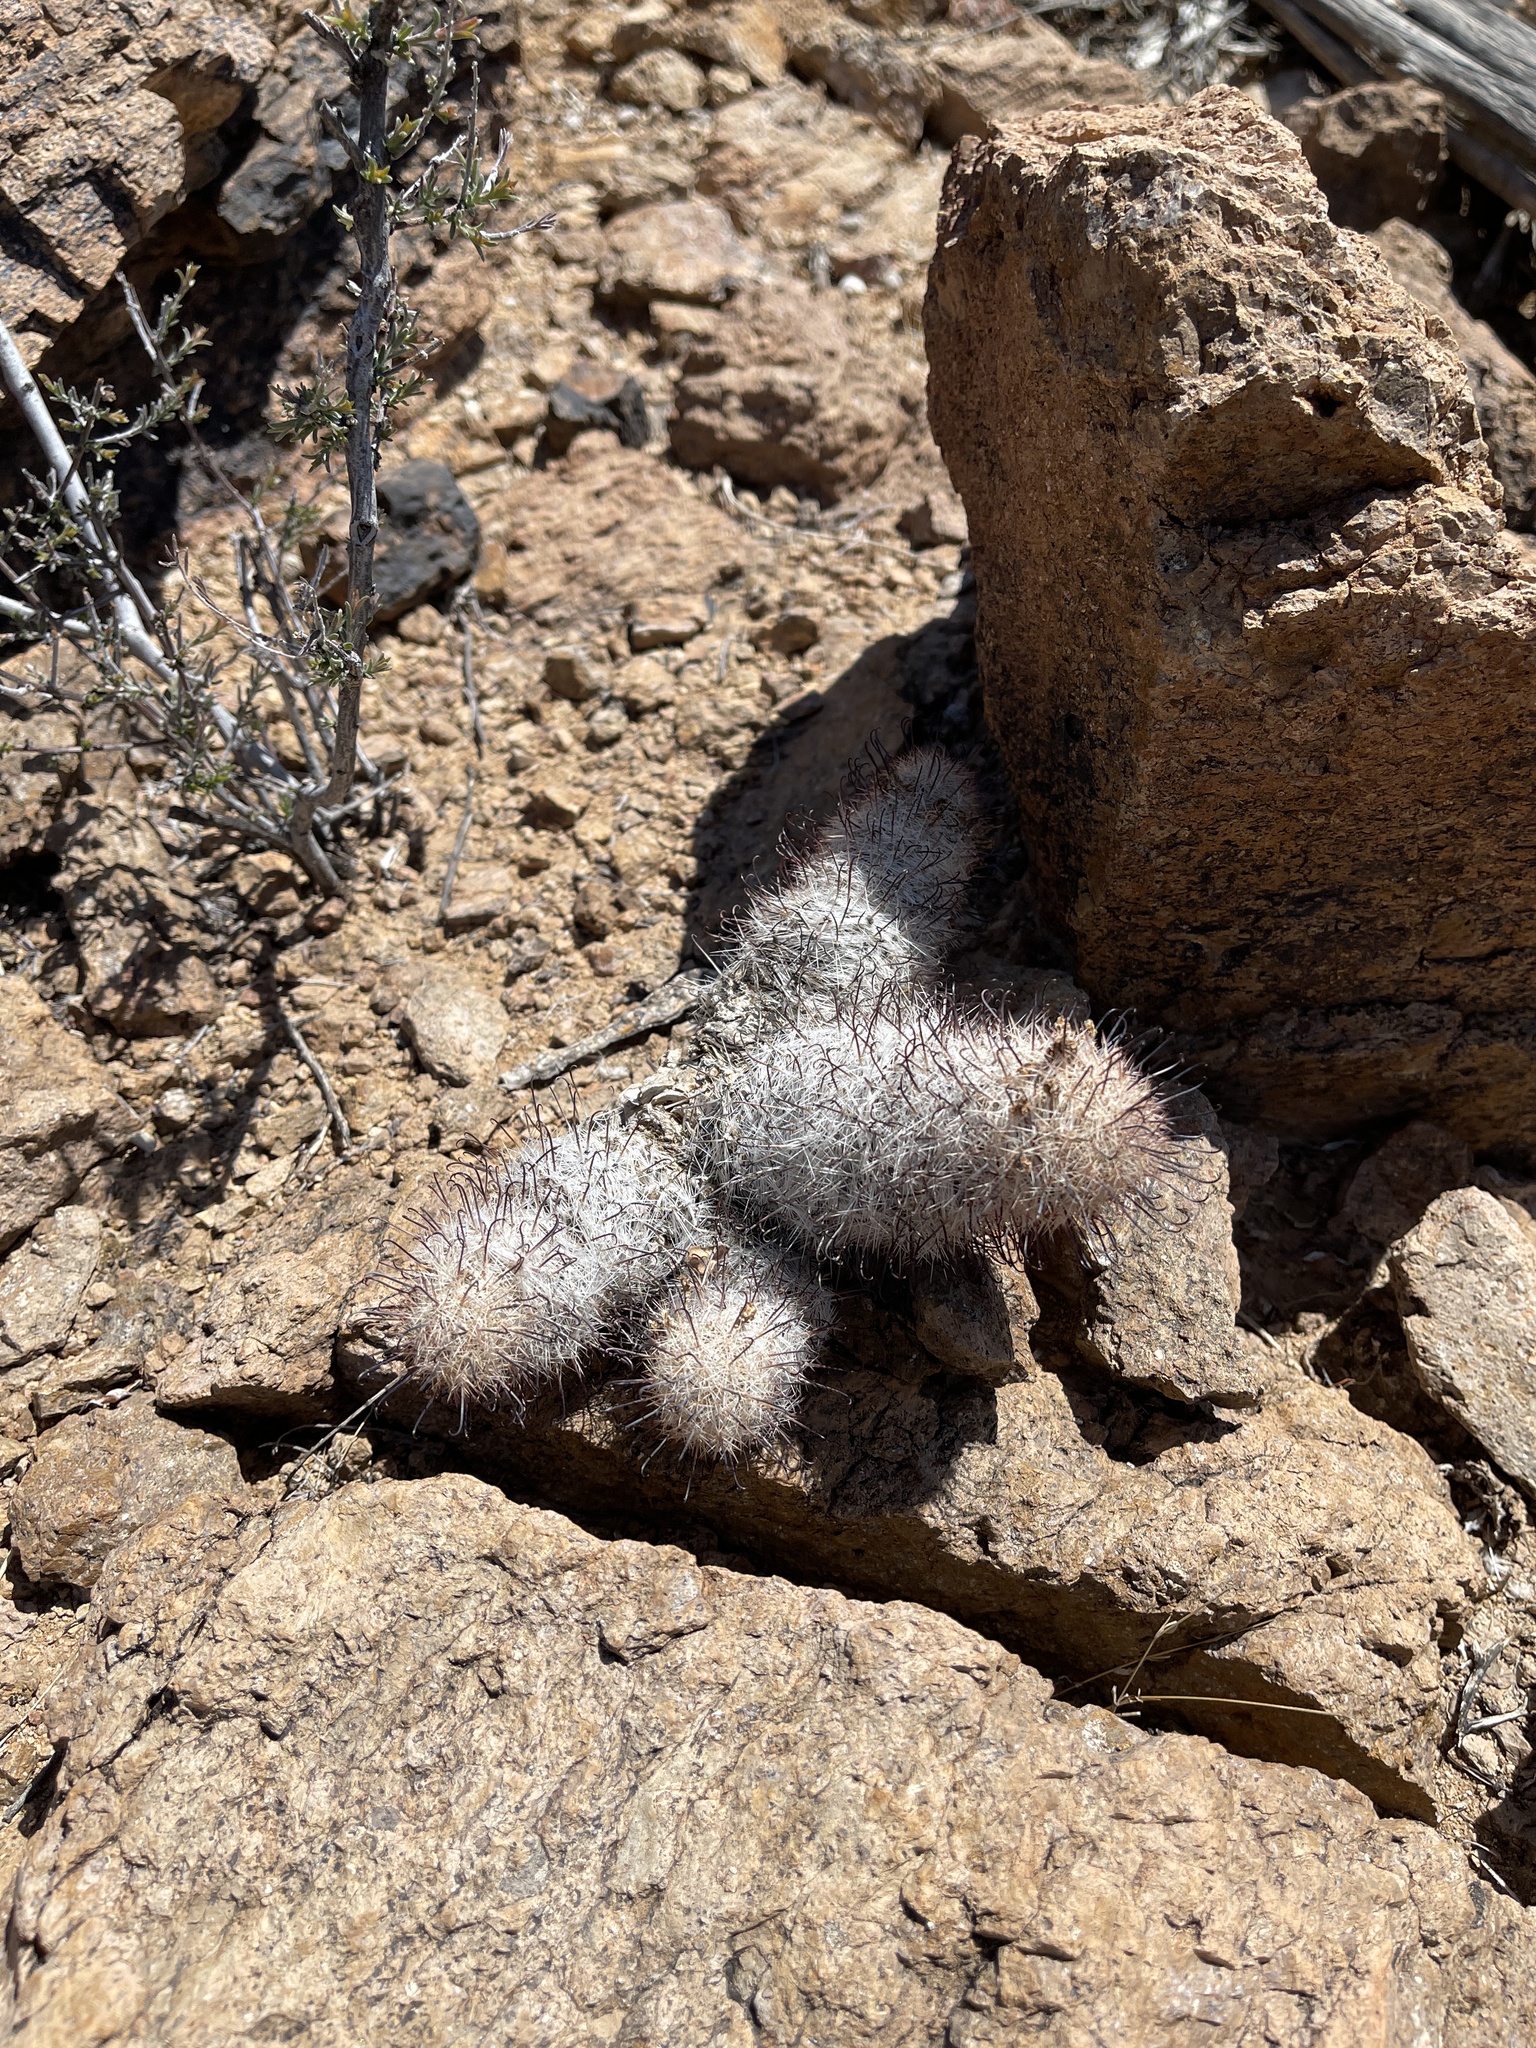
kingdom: Plantae
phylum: Tracheophyta
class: Magnoliopsida
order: Caryophyllales
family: Cactaceae
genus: Cochemiea
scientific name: Cochemiea grahamii
